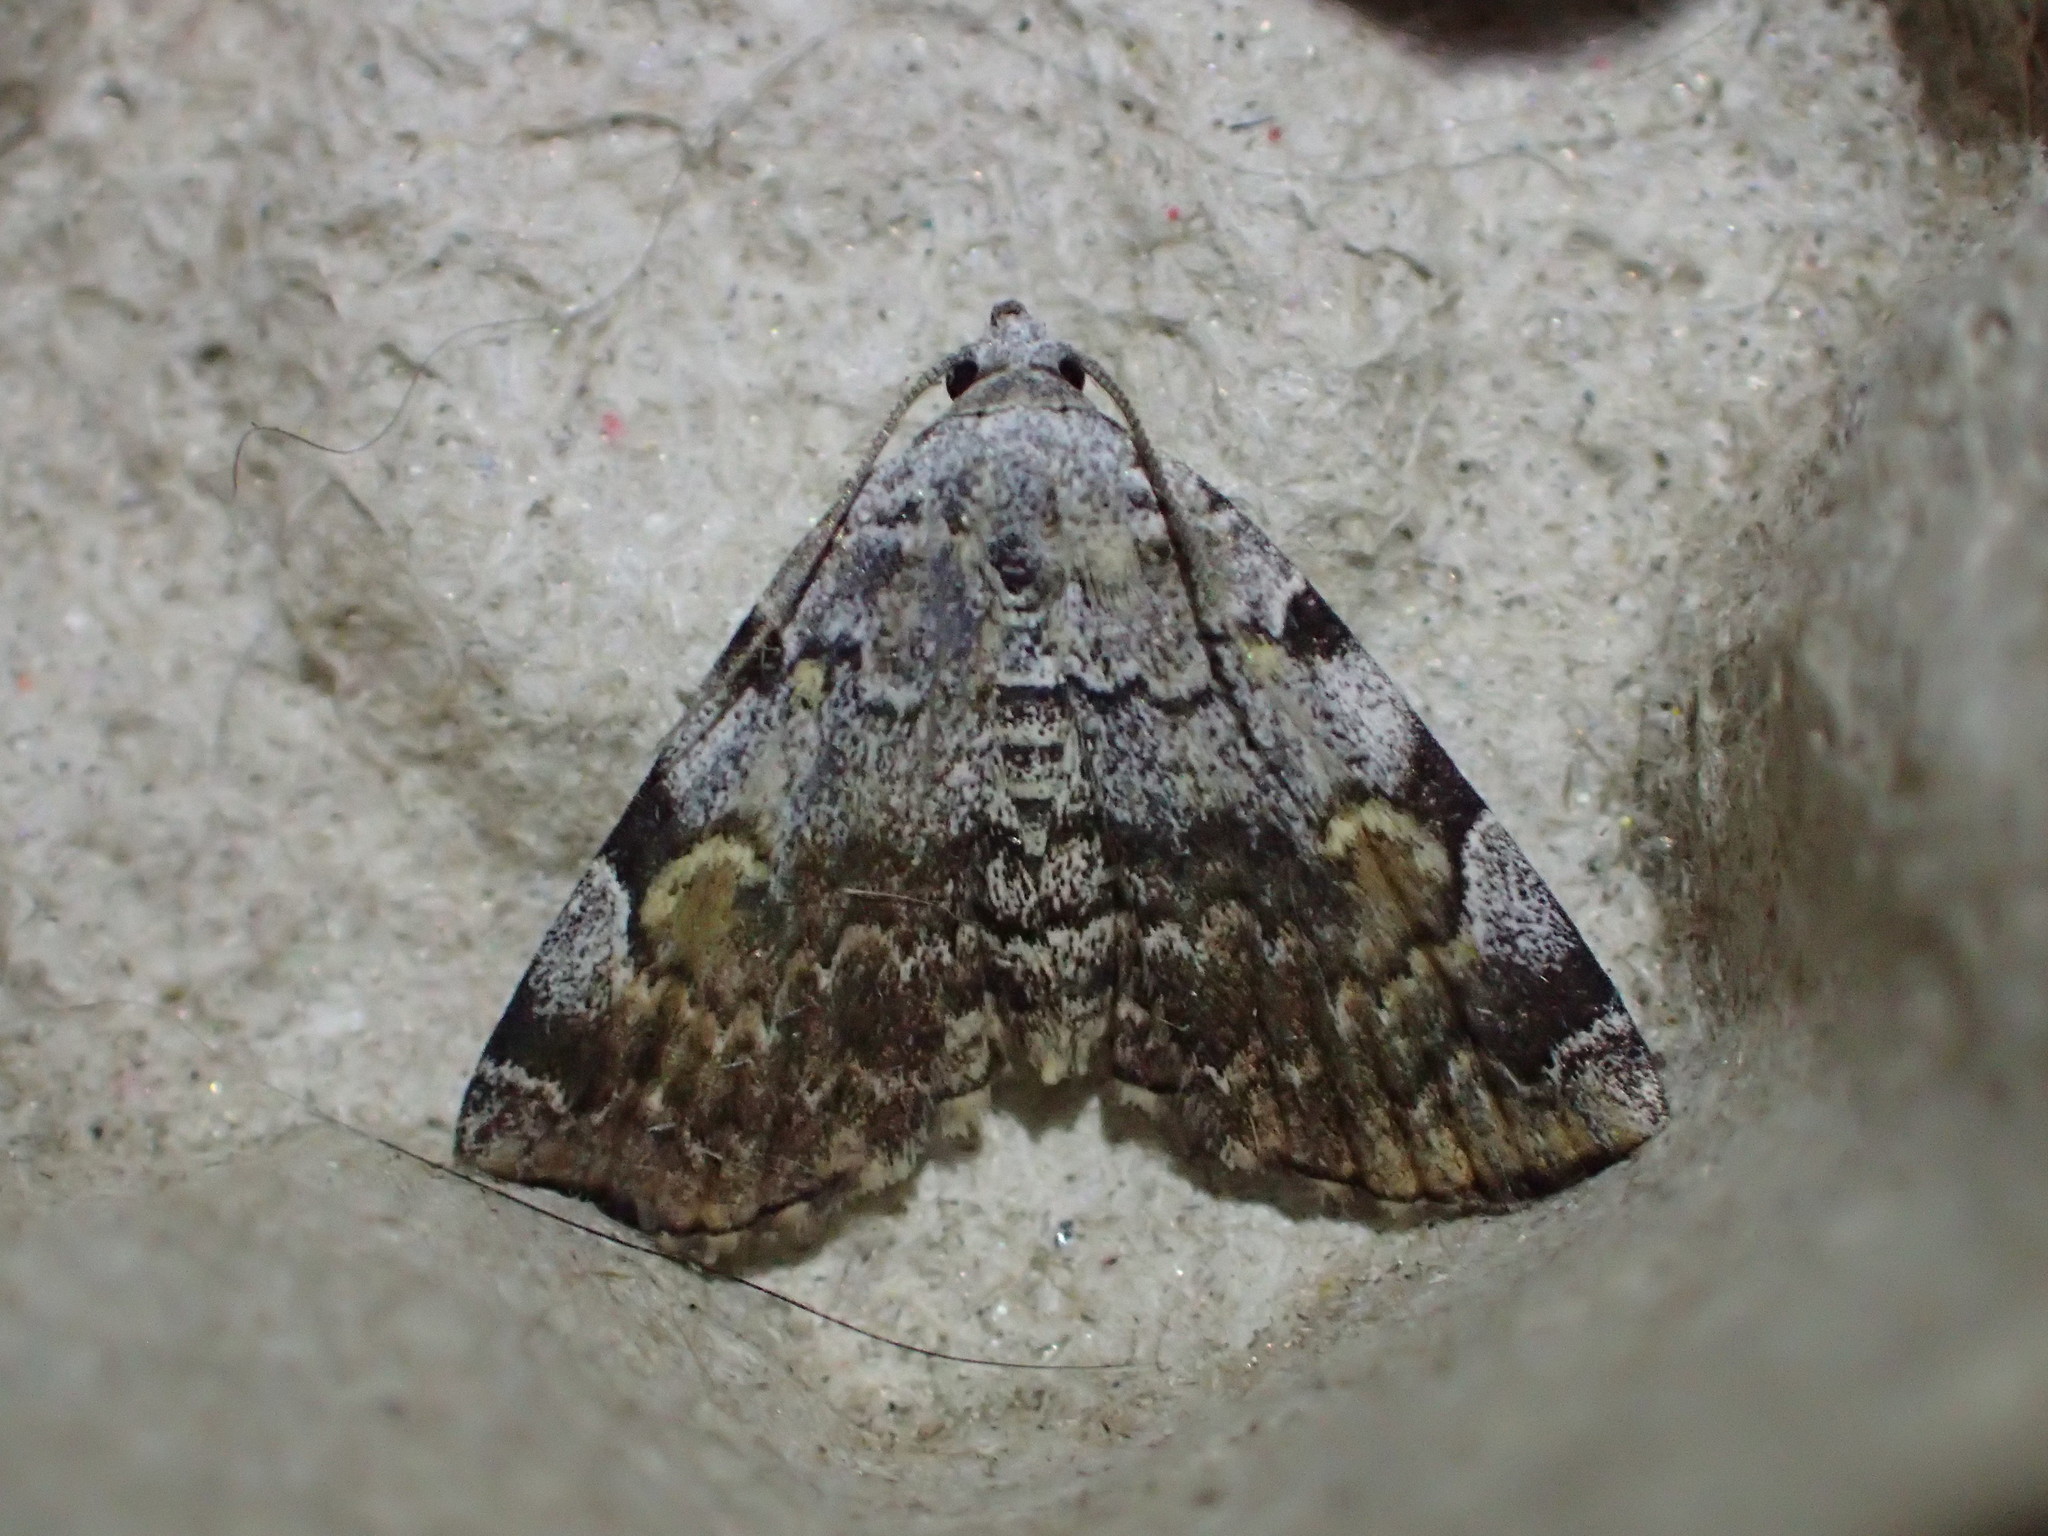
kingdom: Animalia
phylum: Arthropoda
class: Insecta
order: Lepidoptera
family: Erebidae
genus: Idia
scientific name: Idia americalis
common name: American idia moth
